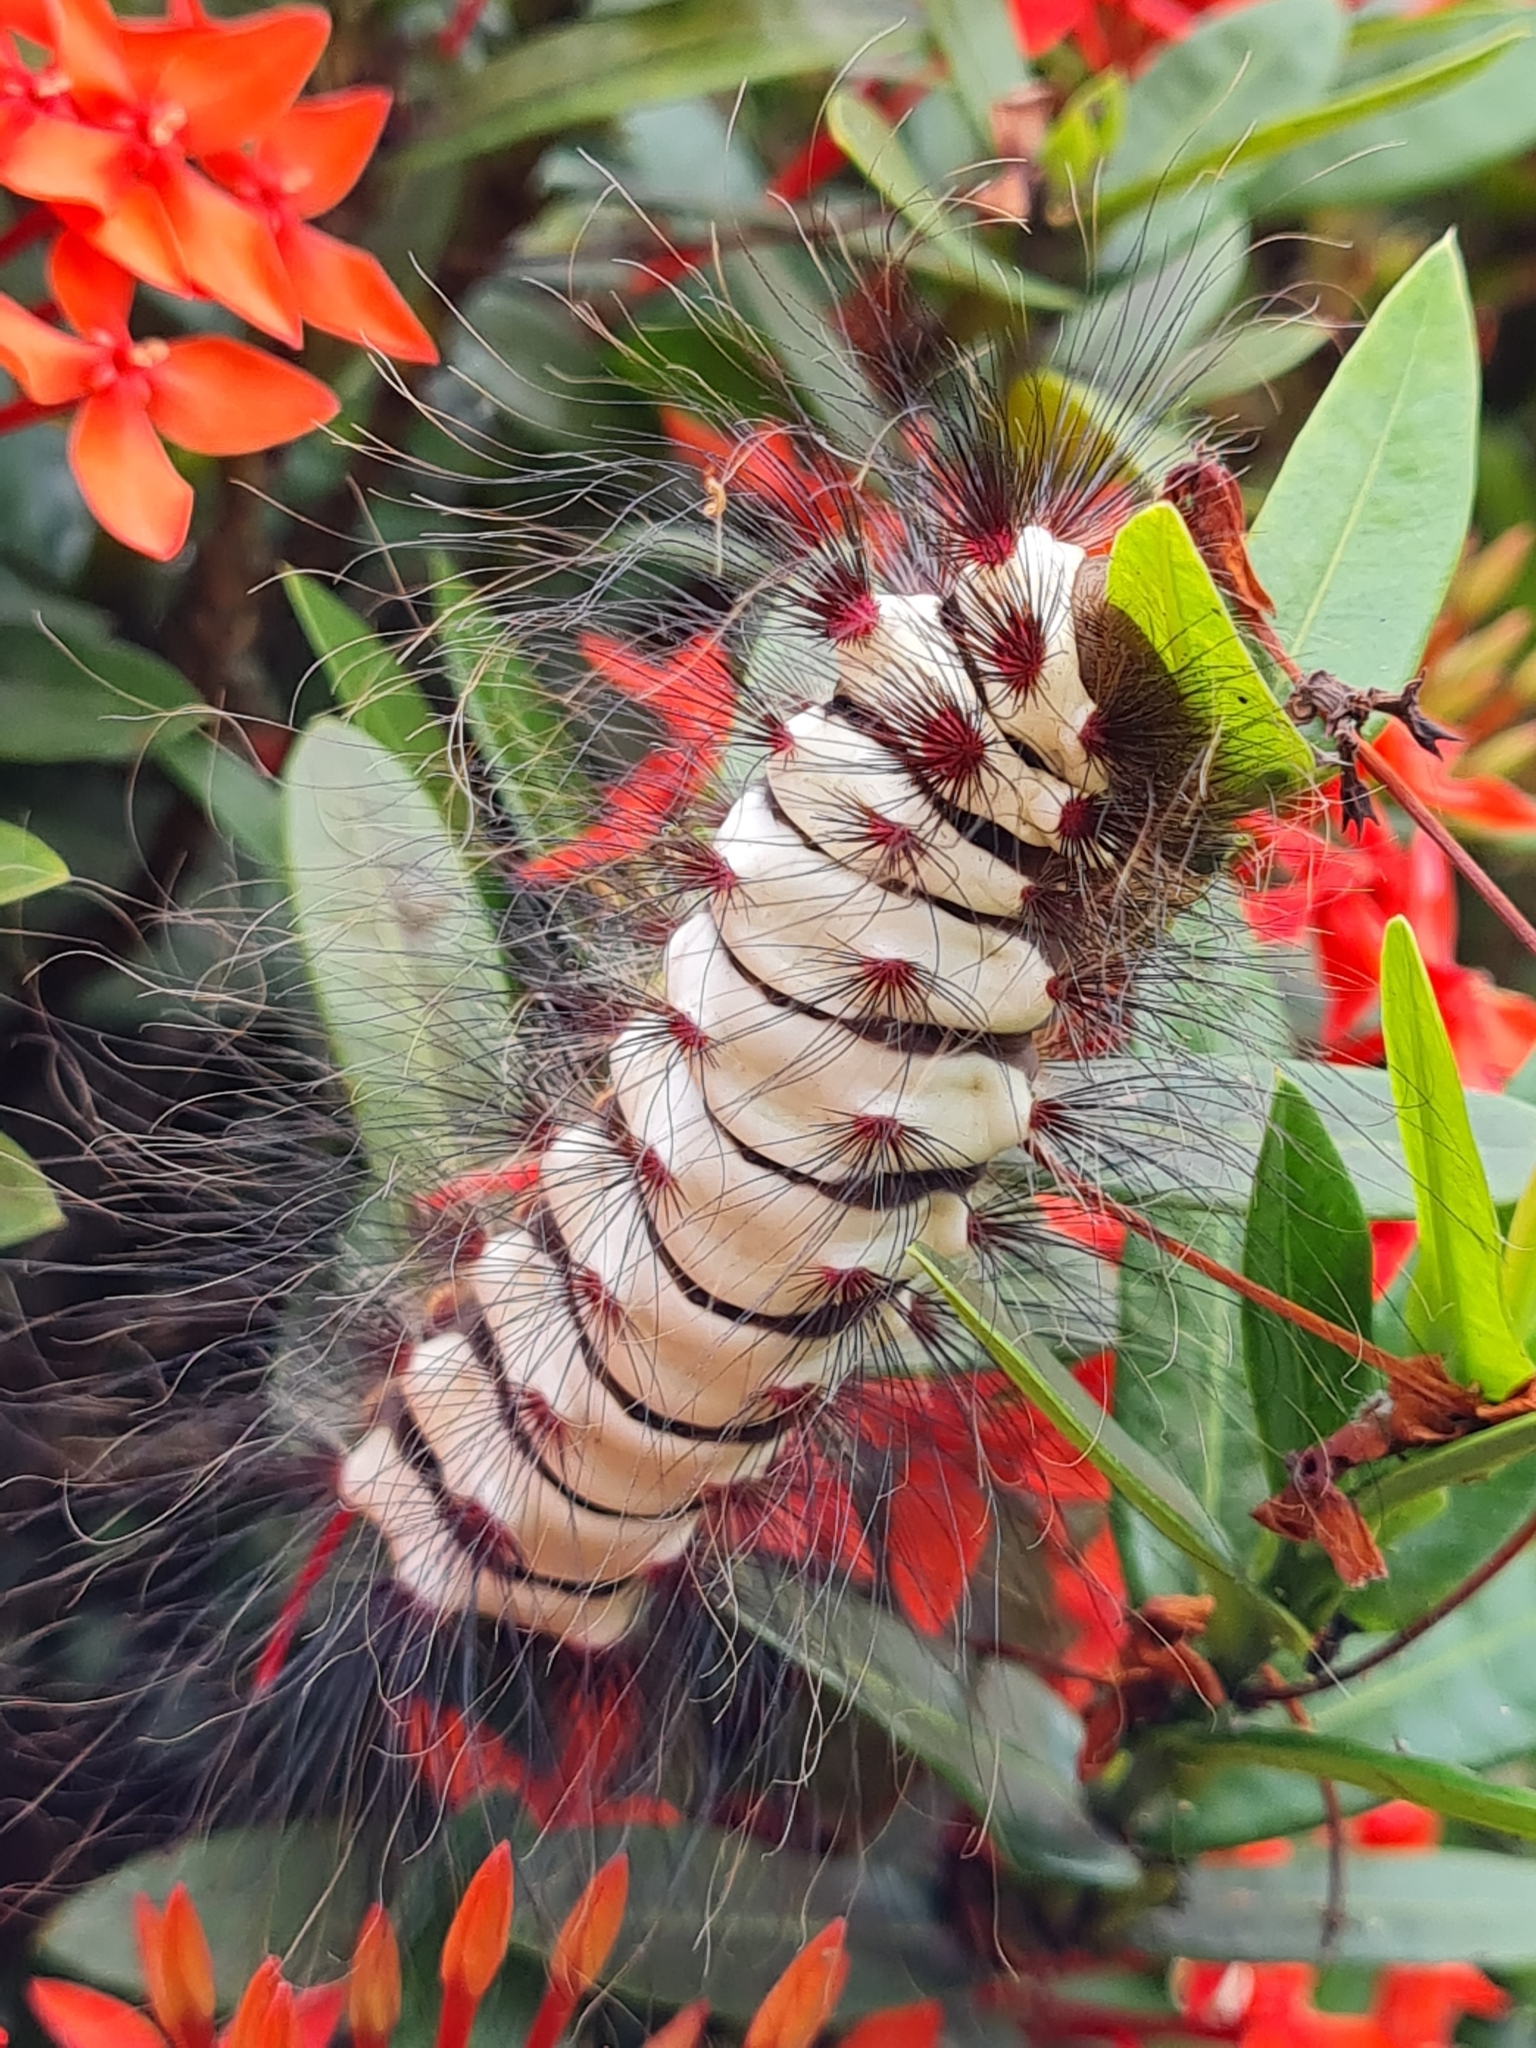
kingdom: Animalia
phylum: Arthropoda
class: Insecta
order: Lepidoptera
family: Megalopygidae
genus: Megalopyge
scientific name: Megalopyge lanata
